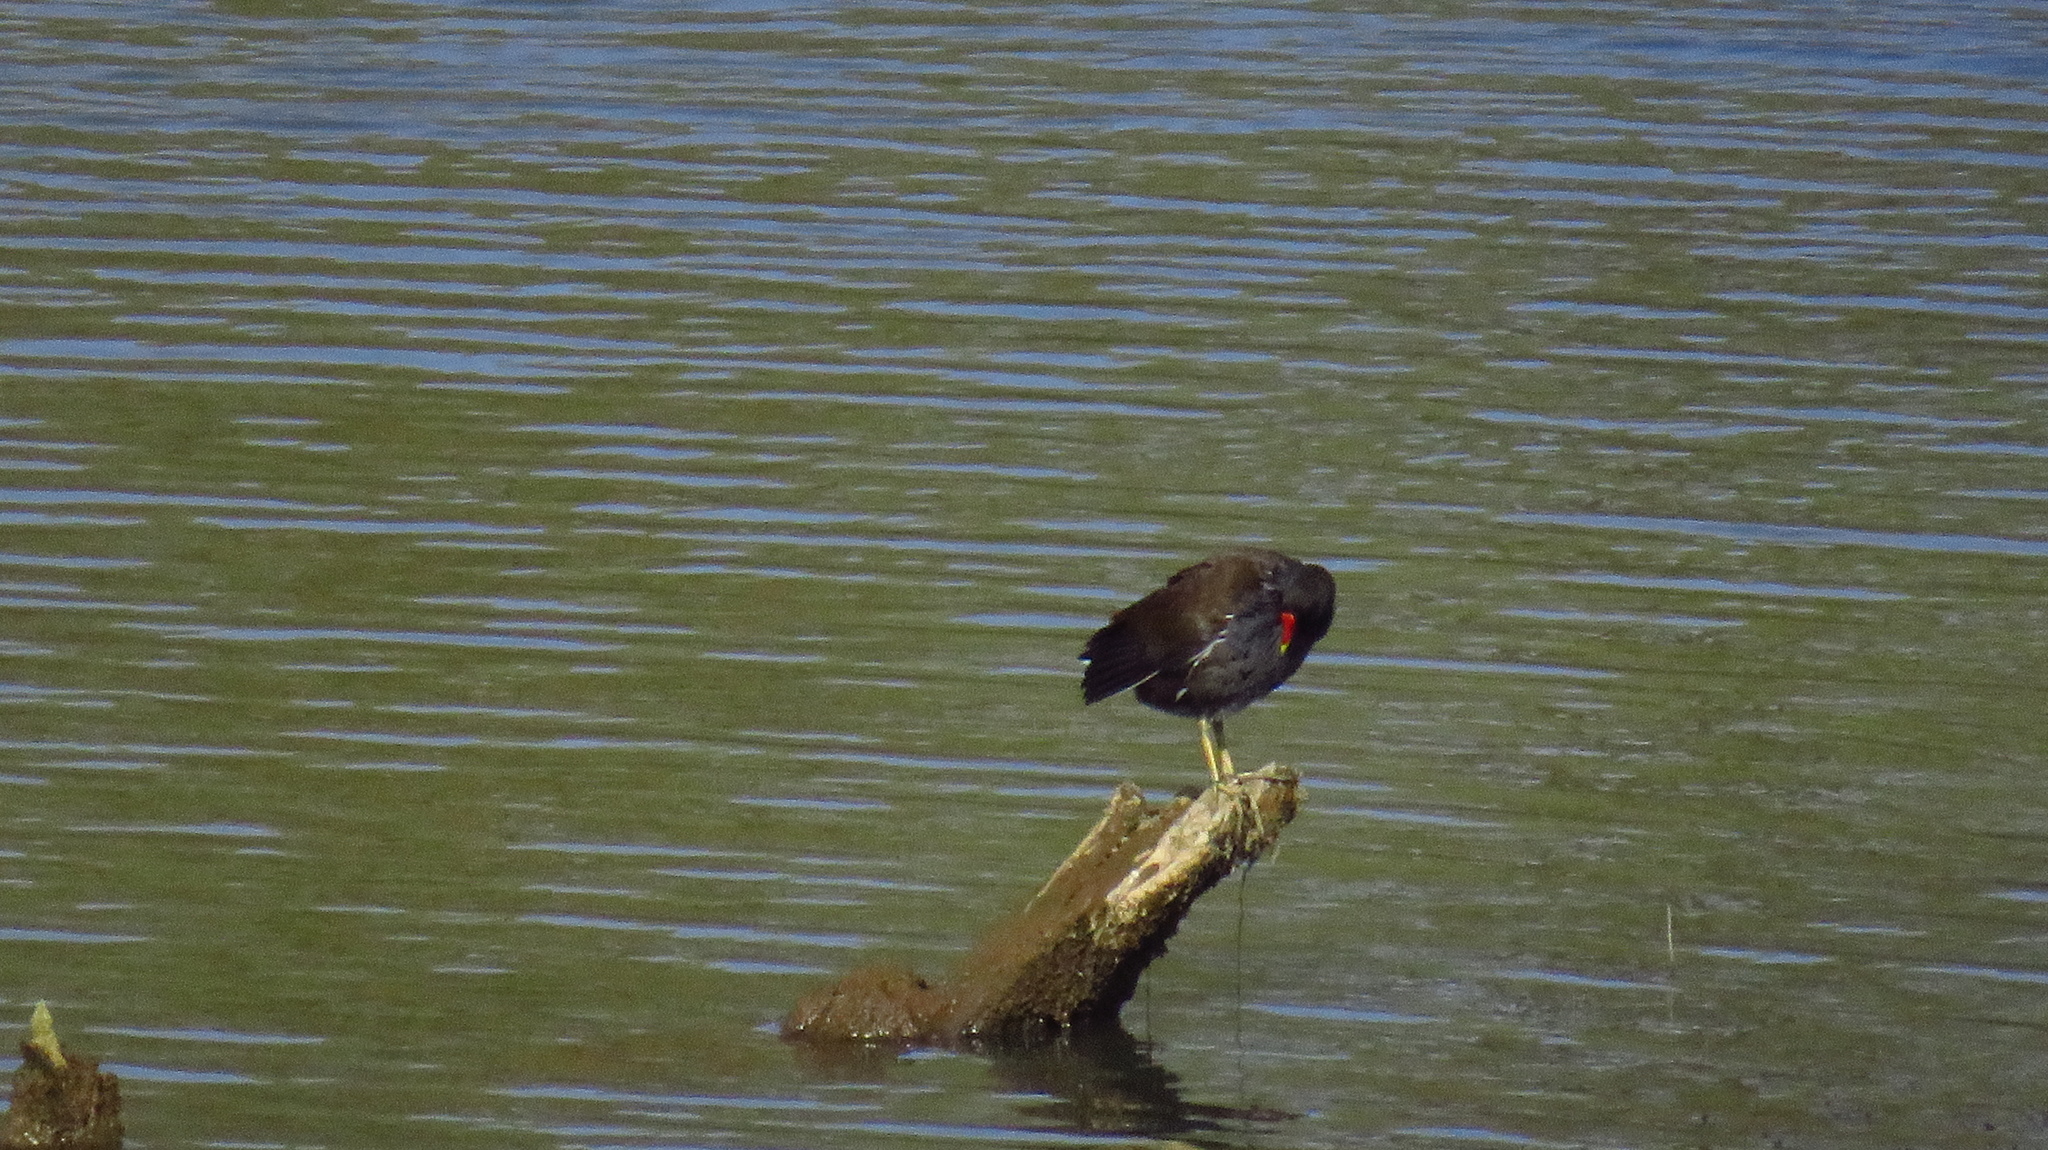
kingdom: Animalia
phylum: Chordata
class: Aves
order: Gruiformes
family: Rallidae
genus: Gallinula
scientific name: Gallinula chloropus
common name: Common moorhen
